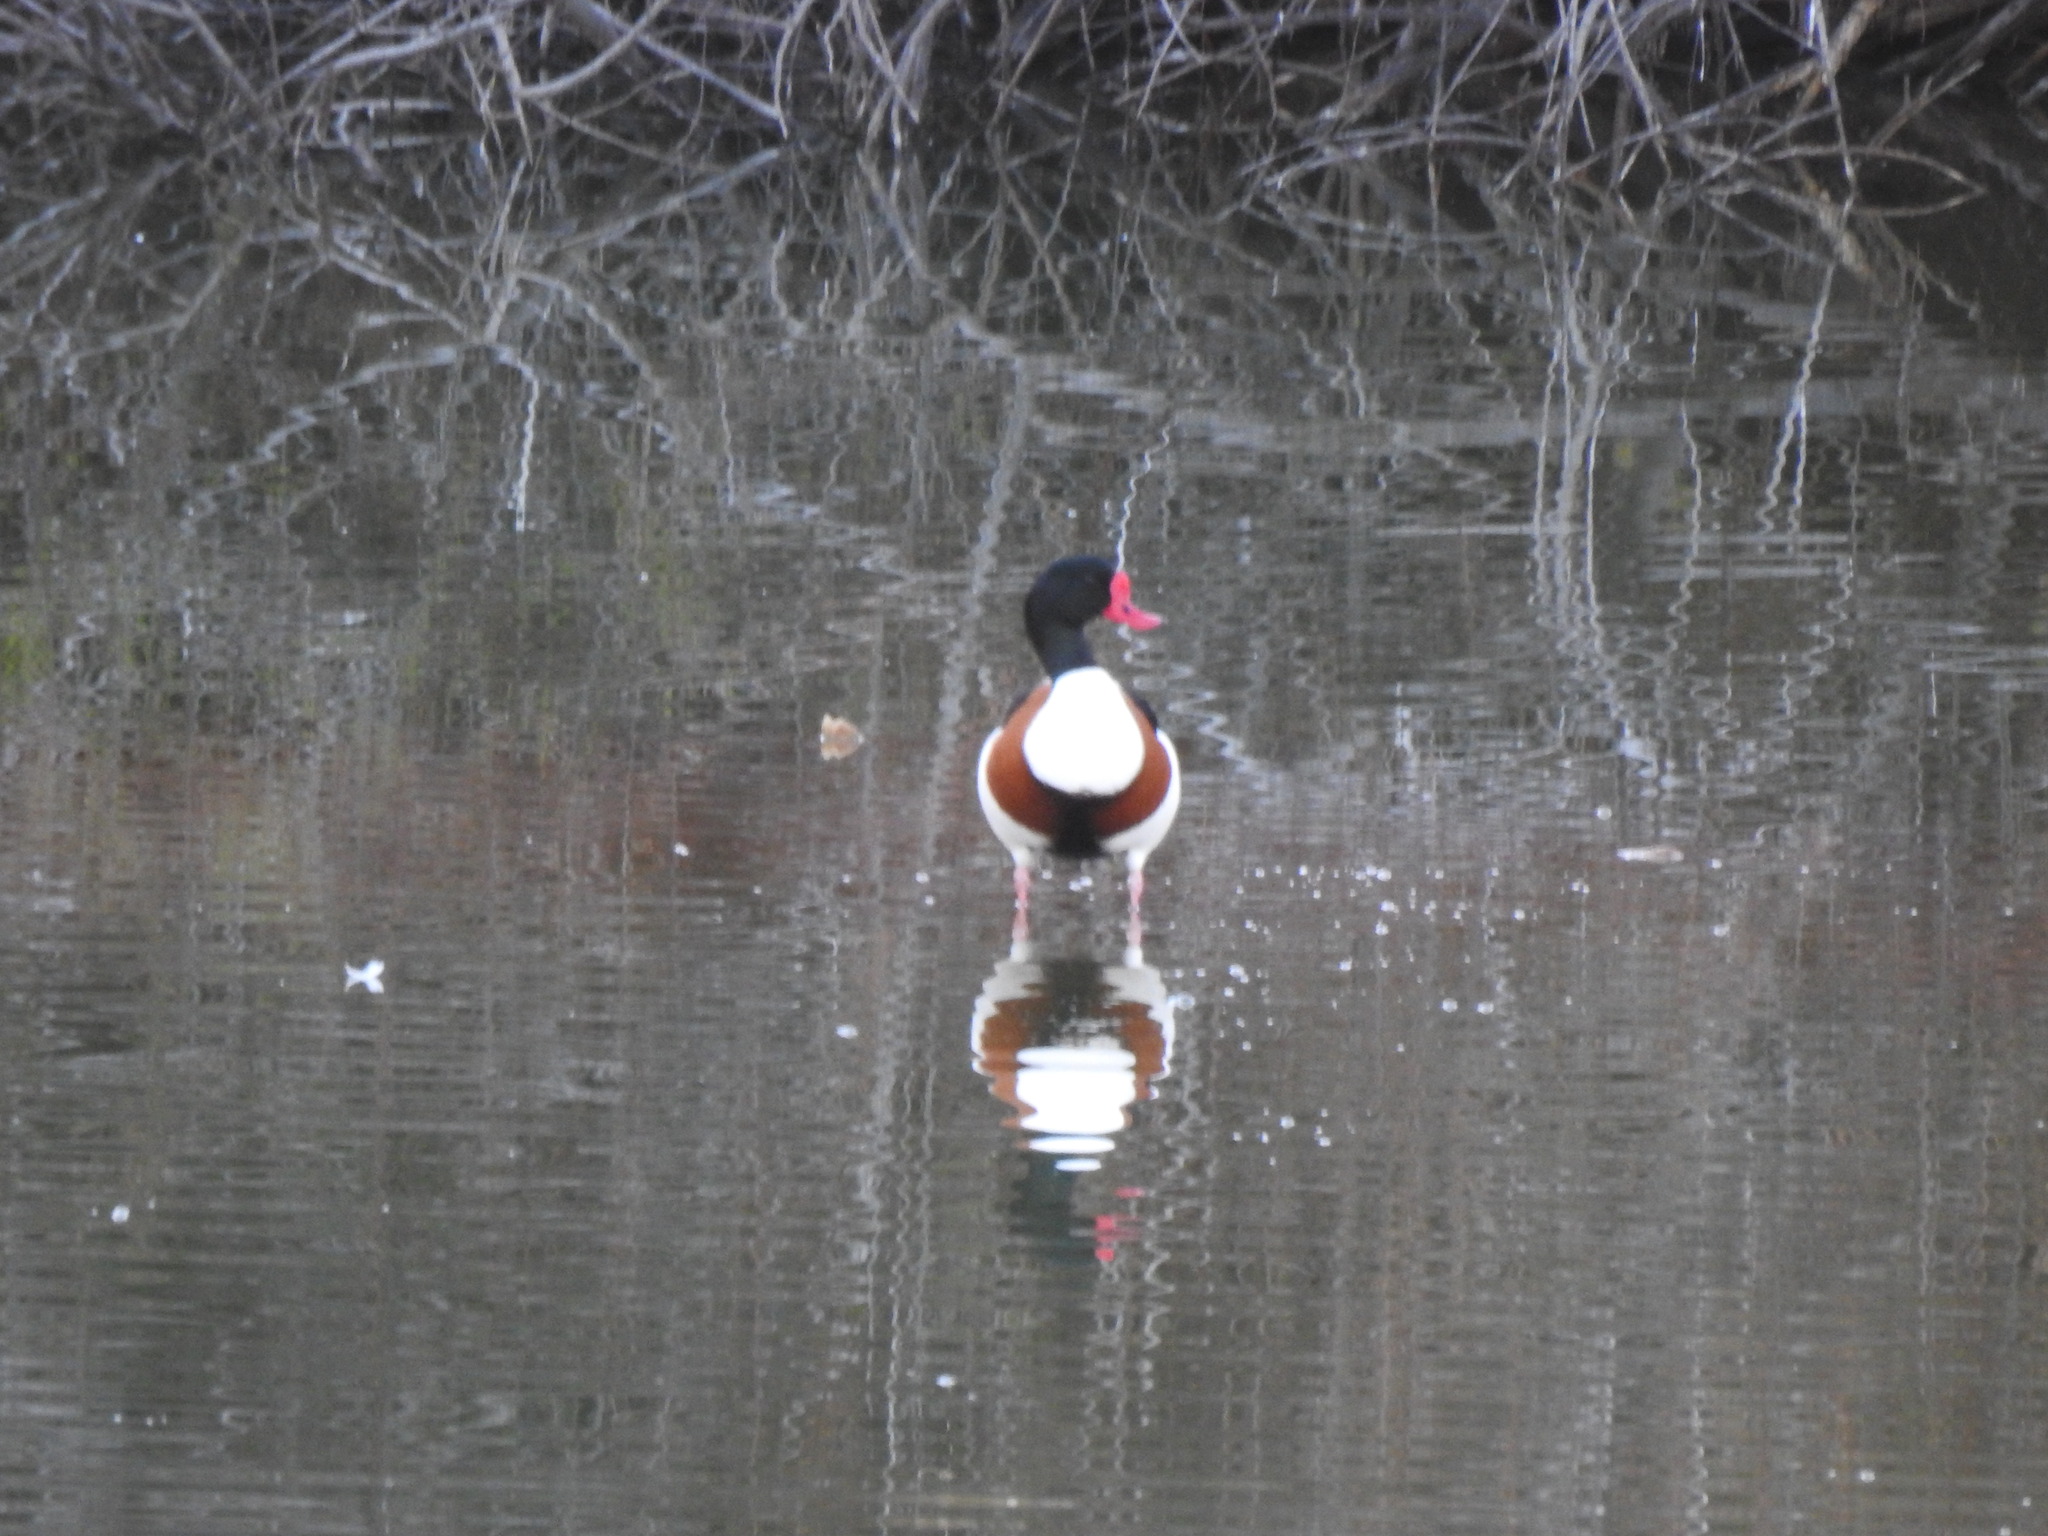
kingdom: Animalia
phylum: Chordata
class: Aves
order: Anseriformes
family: Anatidae
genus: Tadorna
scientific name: Tadorna tadorna
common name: Common shelduck
